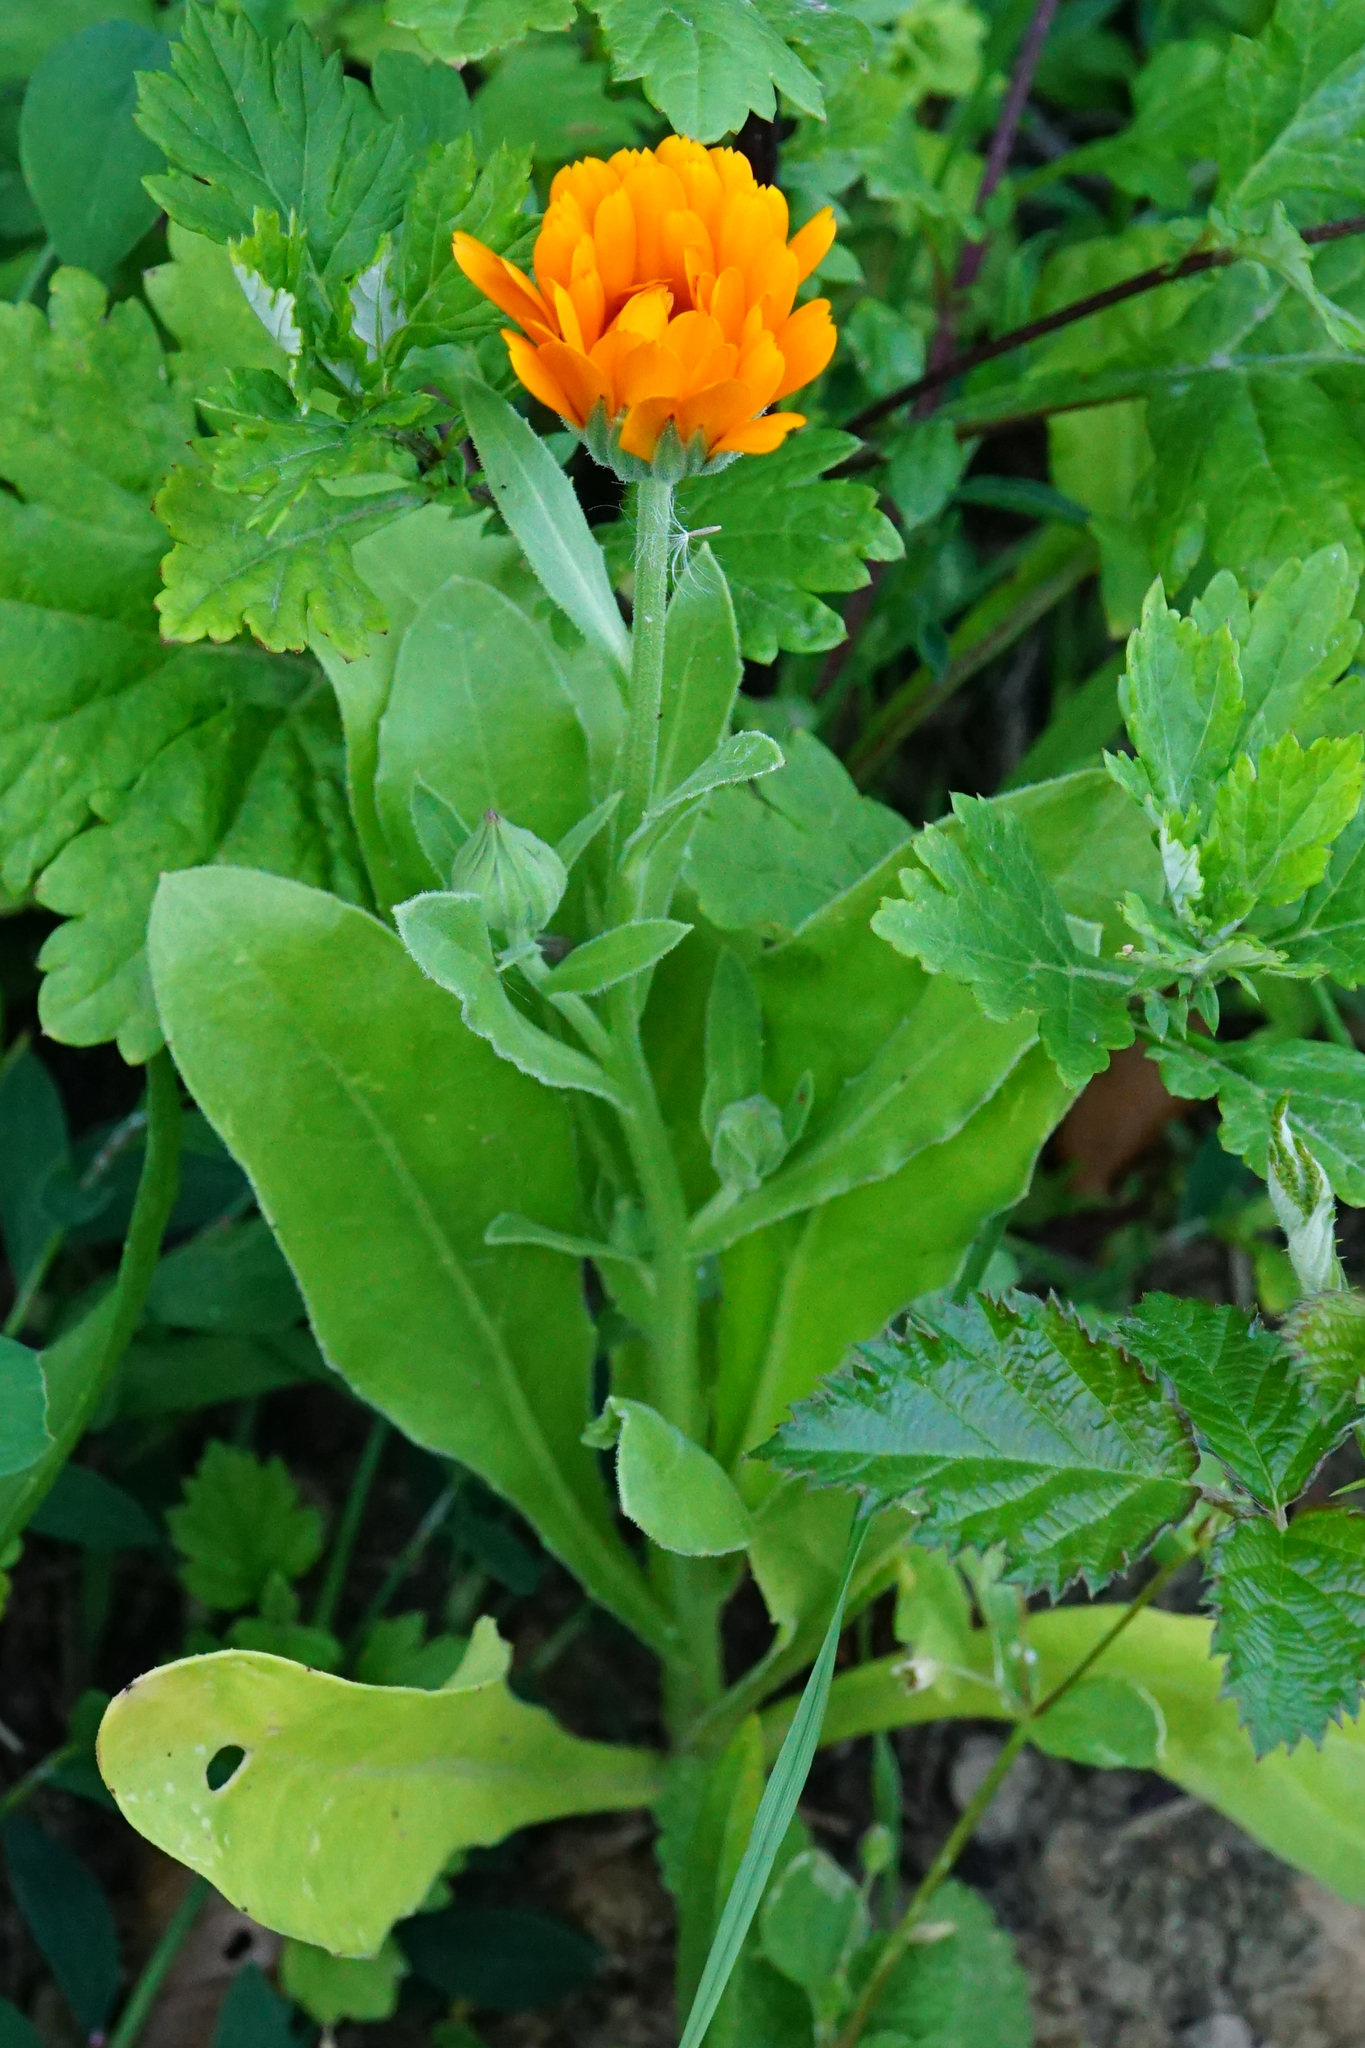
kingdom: Plantae
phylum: Tracheophyta
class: Magnoliopsida
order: Asterales
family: Asteraceae
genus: Calendula
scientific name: Calendula officinalis
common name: Pot marigold
